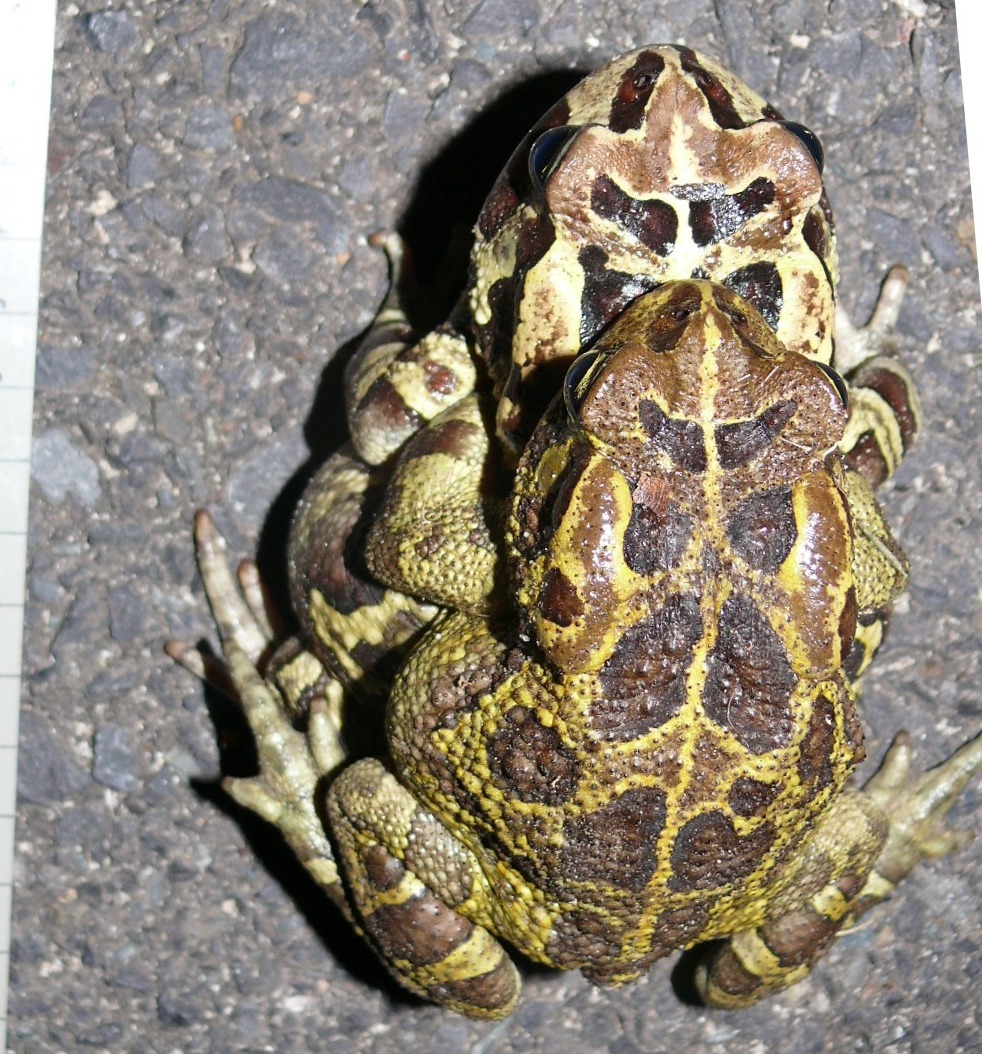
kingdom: Animalia
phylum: Chordata
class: Amphibia
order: Anura
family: Bufonidae
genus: Sclerophrys
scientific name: Sclerophrys pantherina
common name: Panther toad
